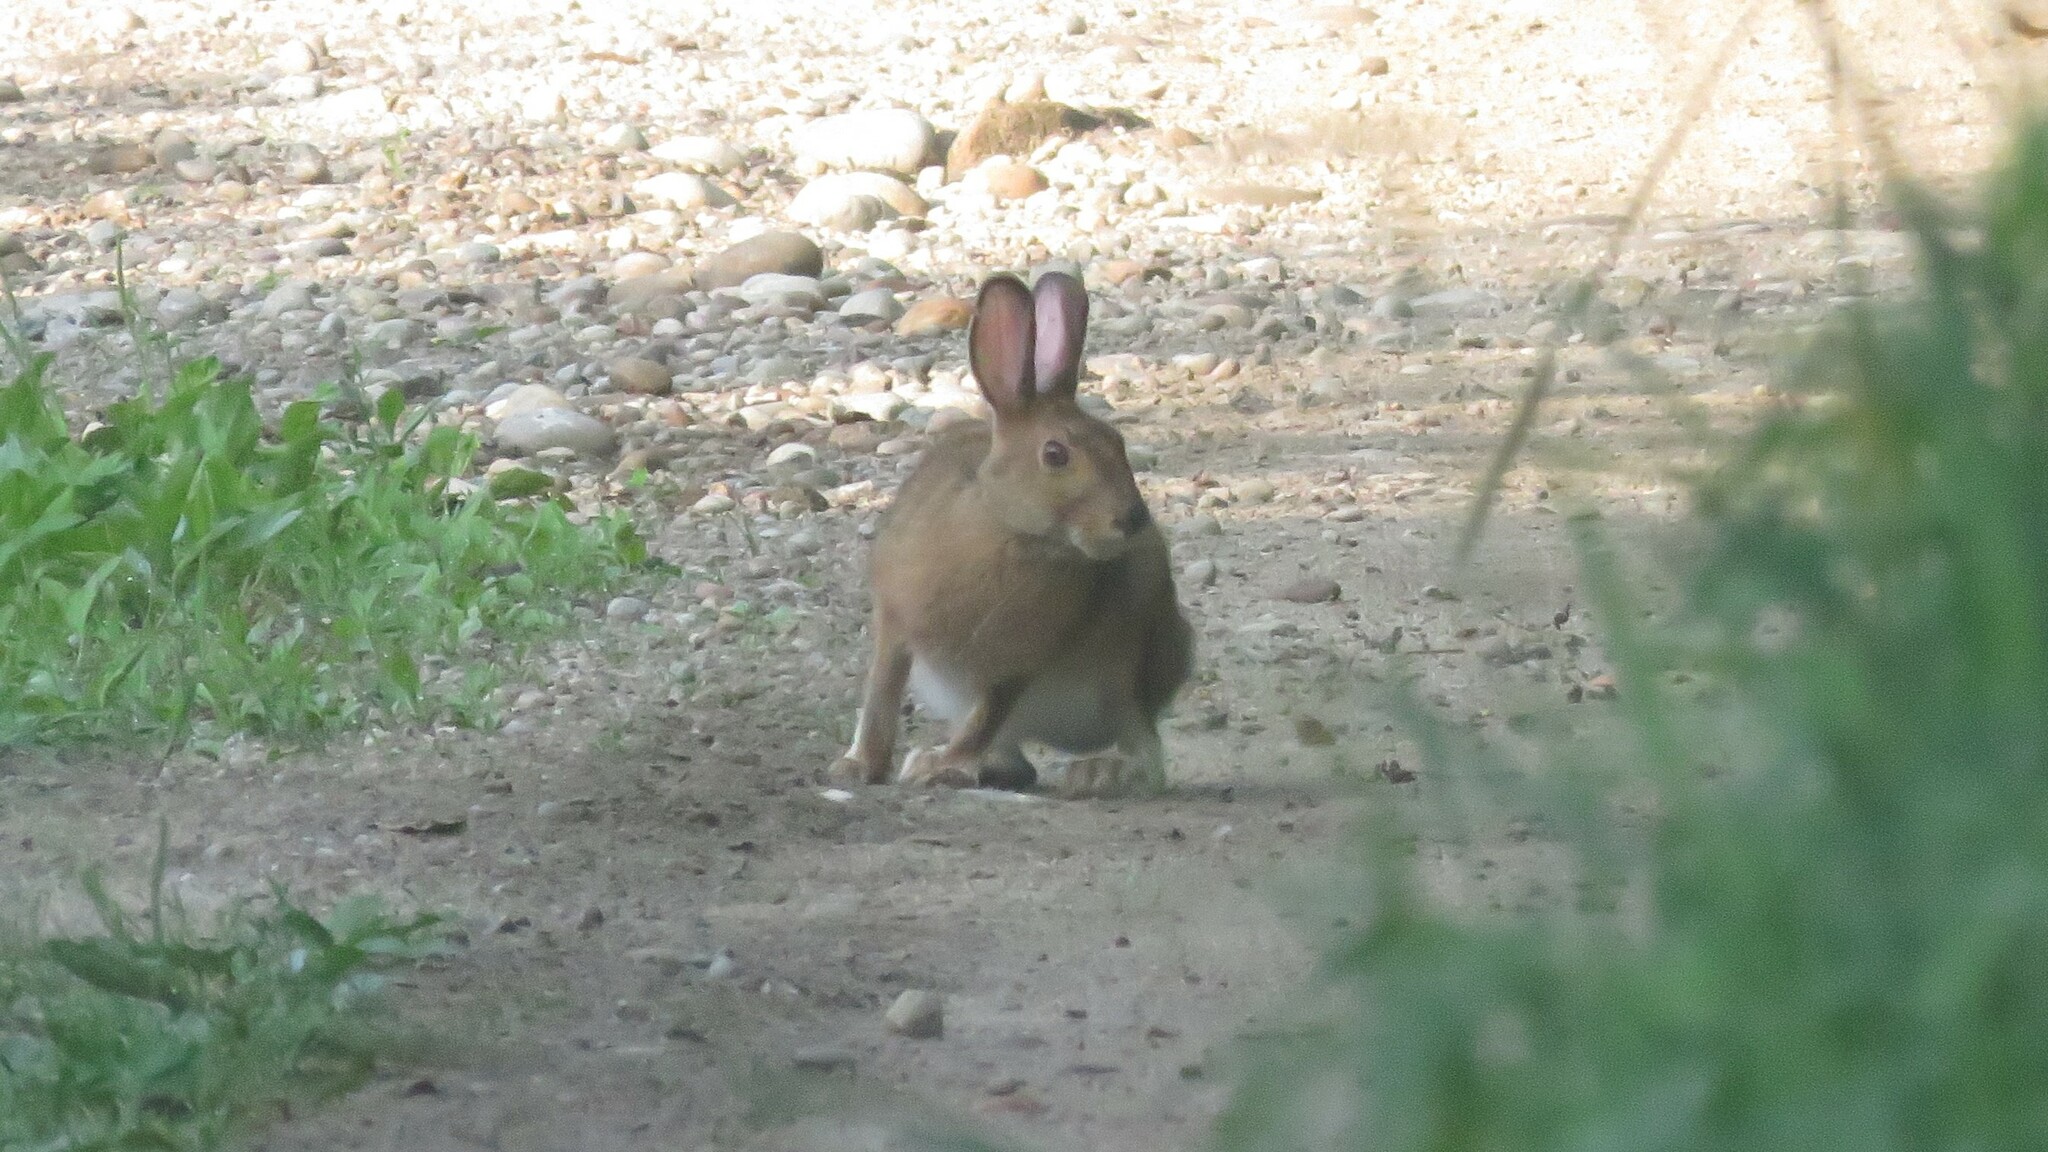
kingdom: Animalia
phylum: Chordata
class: Mammalia
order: Lagomorpha
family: Leporidae
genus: Lepus
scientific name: Lepus americanus
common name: Snowshoe hare
